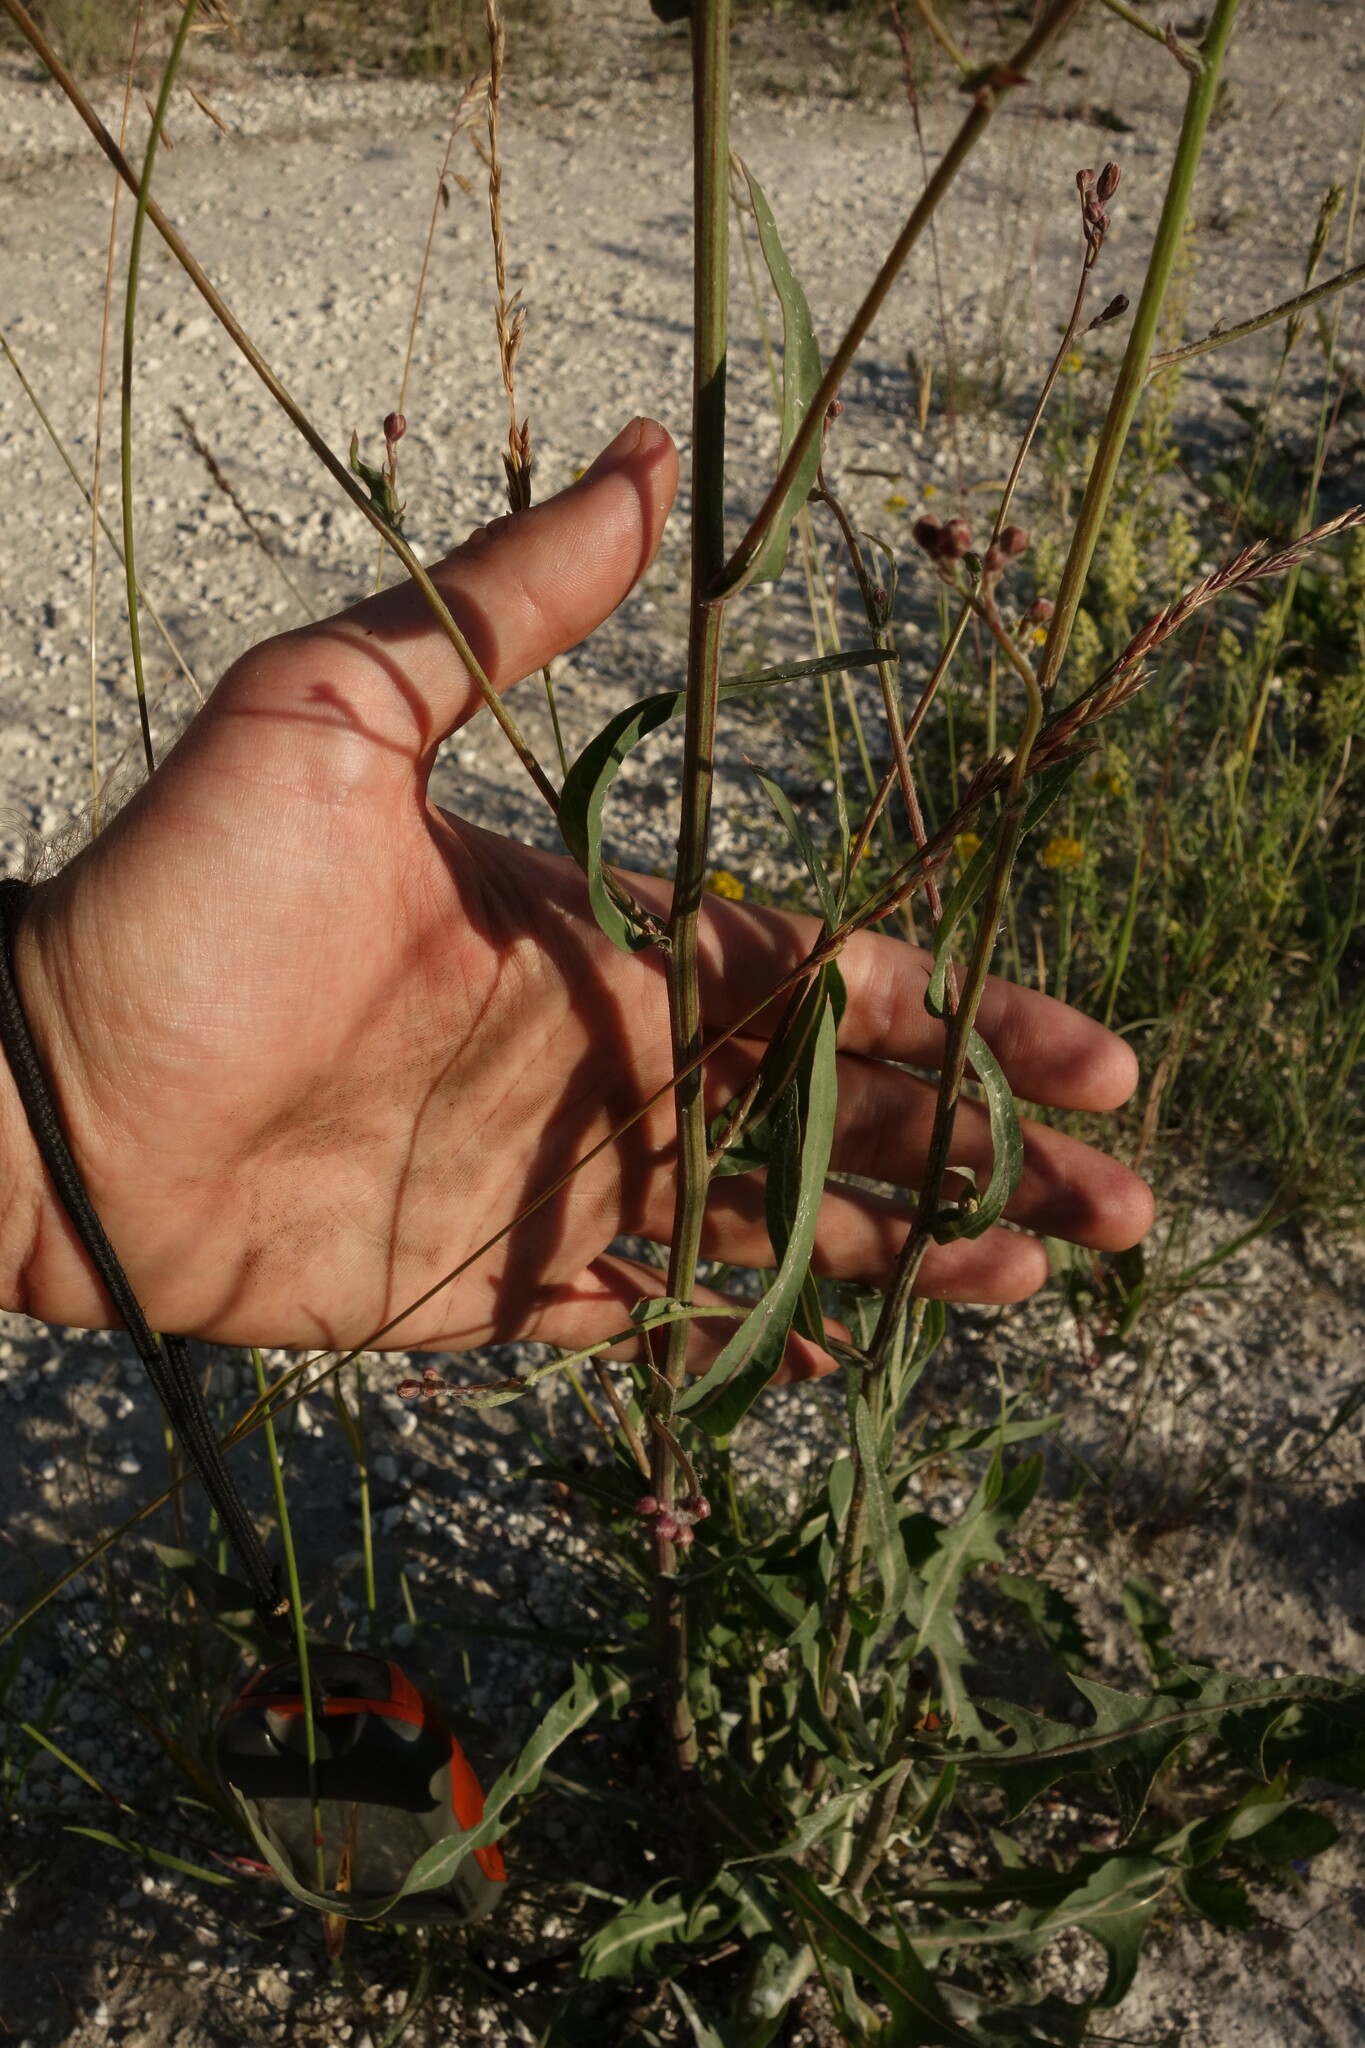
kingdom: Plantae
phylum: Tracheophyta
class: Magnoliopsida
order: Asterales
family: Asteraceae
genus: Lactuca
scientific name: Lactuca tatarica
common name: Blue lettuce
